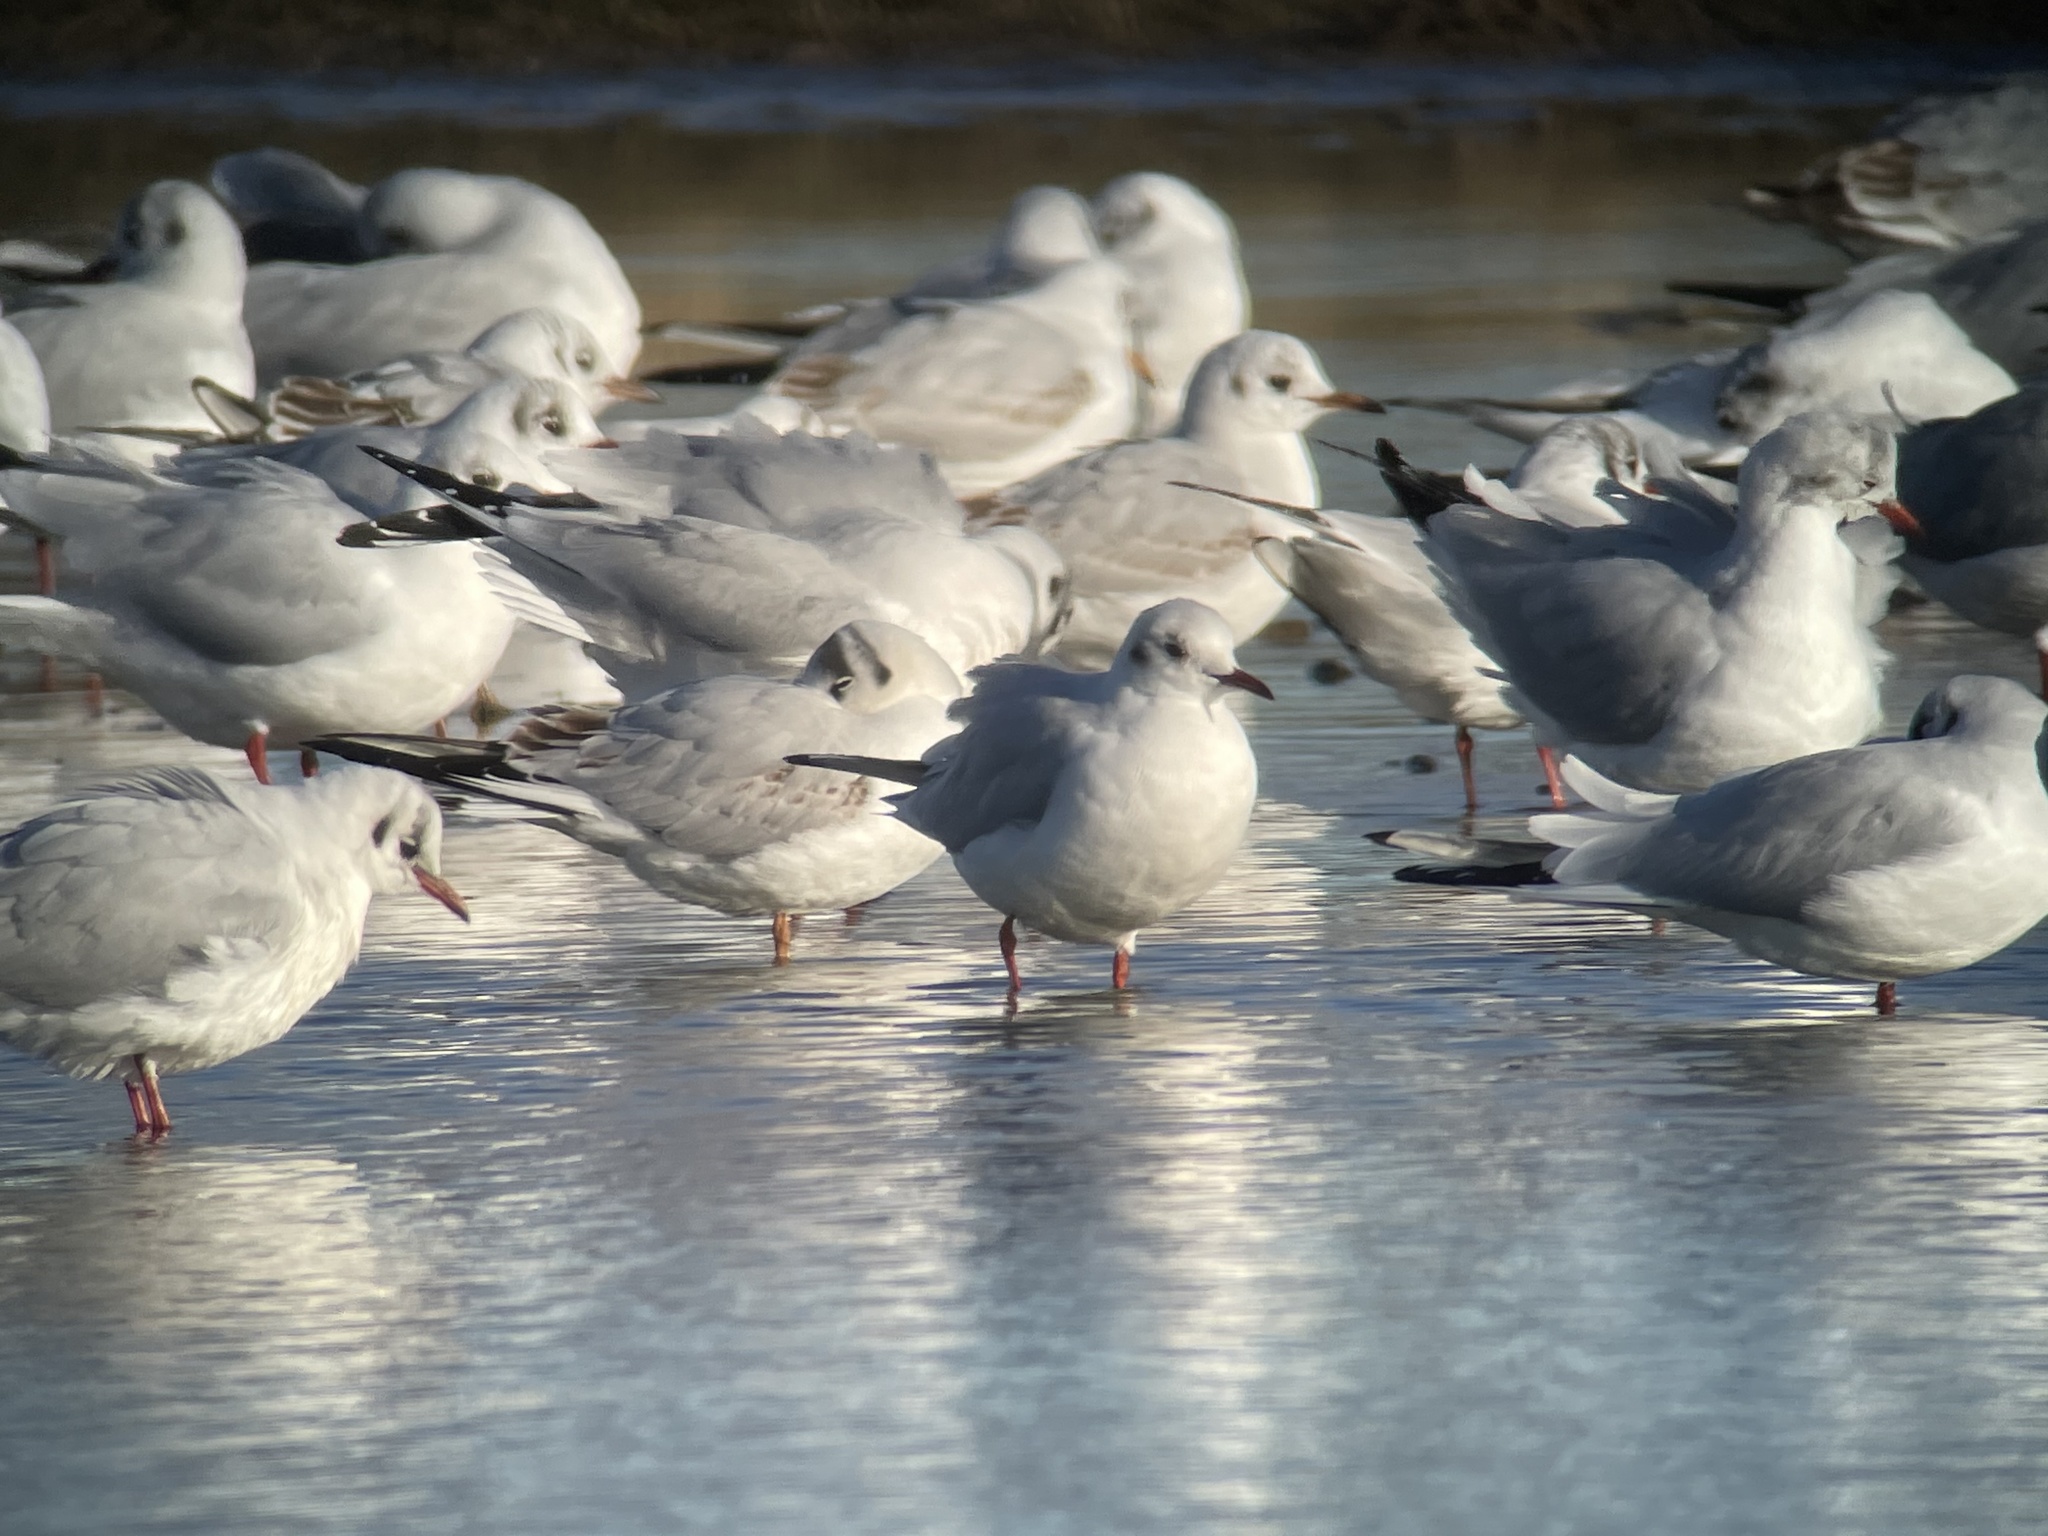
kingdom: Animalia
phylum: Chordata
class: Aves
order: Charadriiformes
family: Laridae
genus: Chroicocephalus
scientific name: Chroicocephalus ridibundus
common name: Black-headed gull
